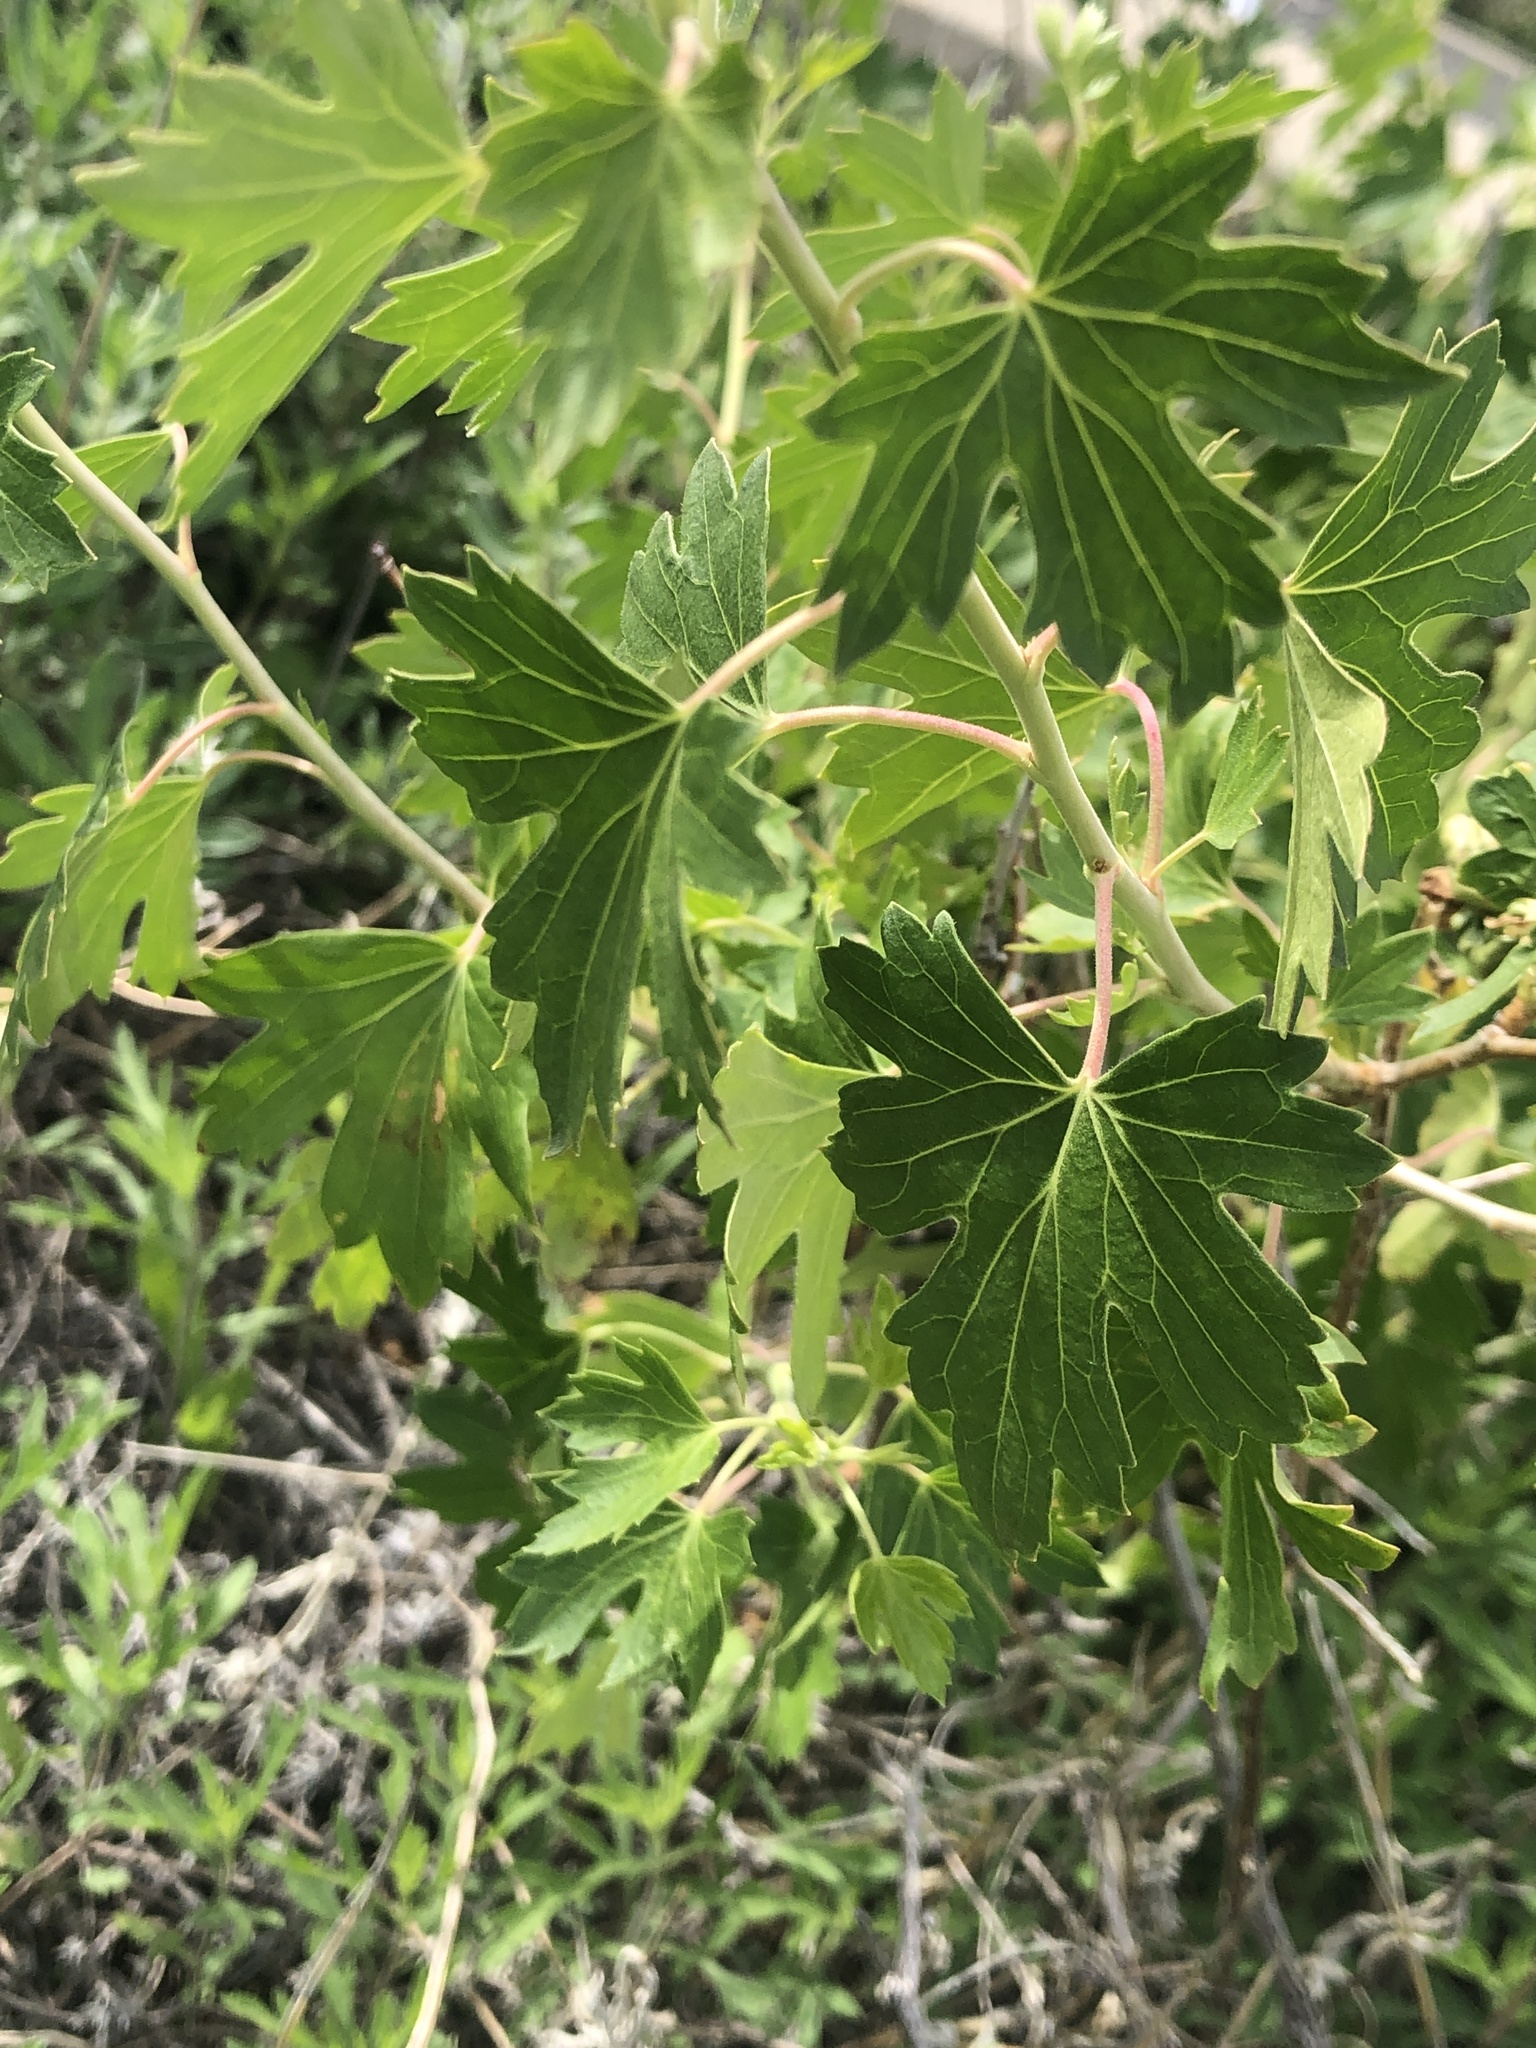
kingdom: Plantae
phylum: Tracheophyta
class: Magnoliopsida
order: Saxifragales
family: Grossulariaceae
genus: Ribes
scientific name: Ribes aureum
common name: Golden currant
